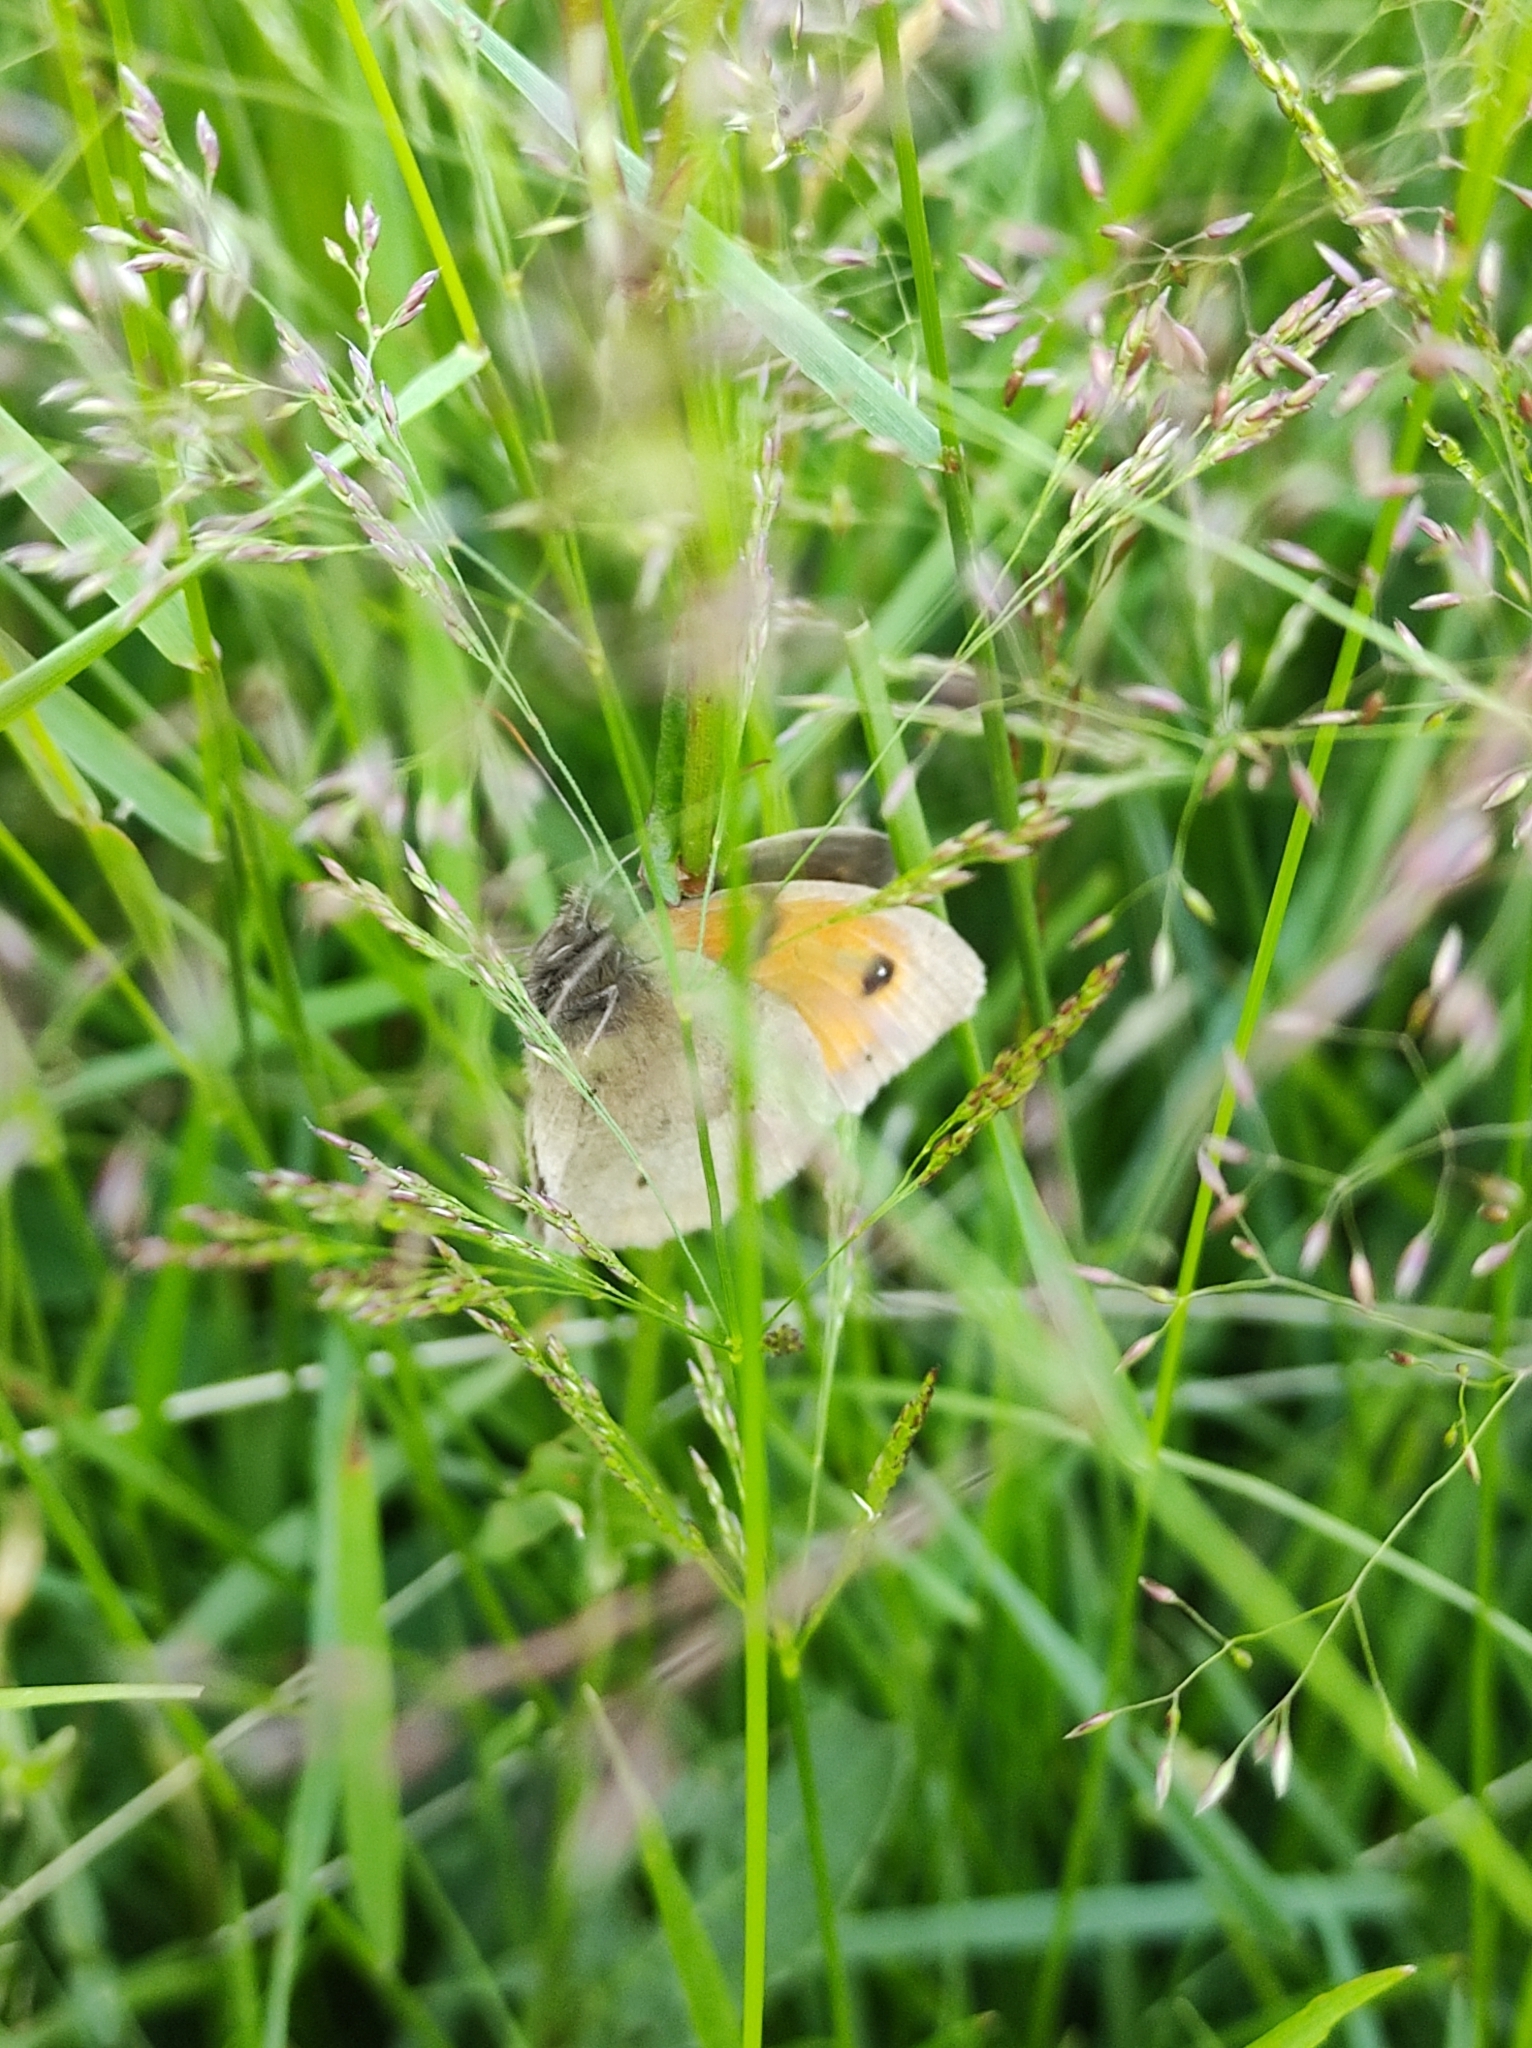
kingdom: Animalia
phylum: Arthropoda
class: Insecta
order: Lepidoptera
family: Nymphalidae
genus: Maniola
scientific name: Maniola jurtina
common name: Meadow brown
